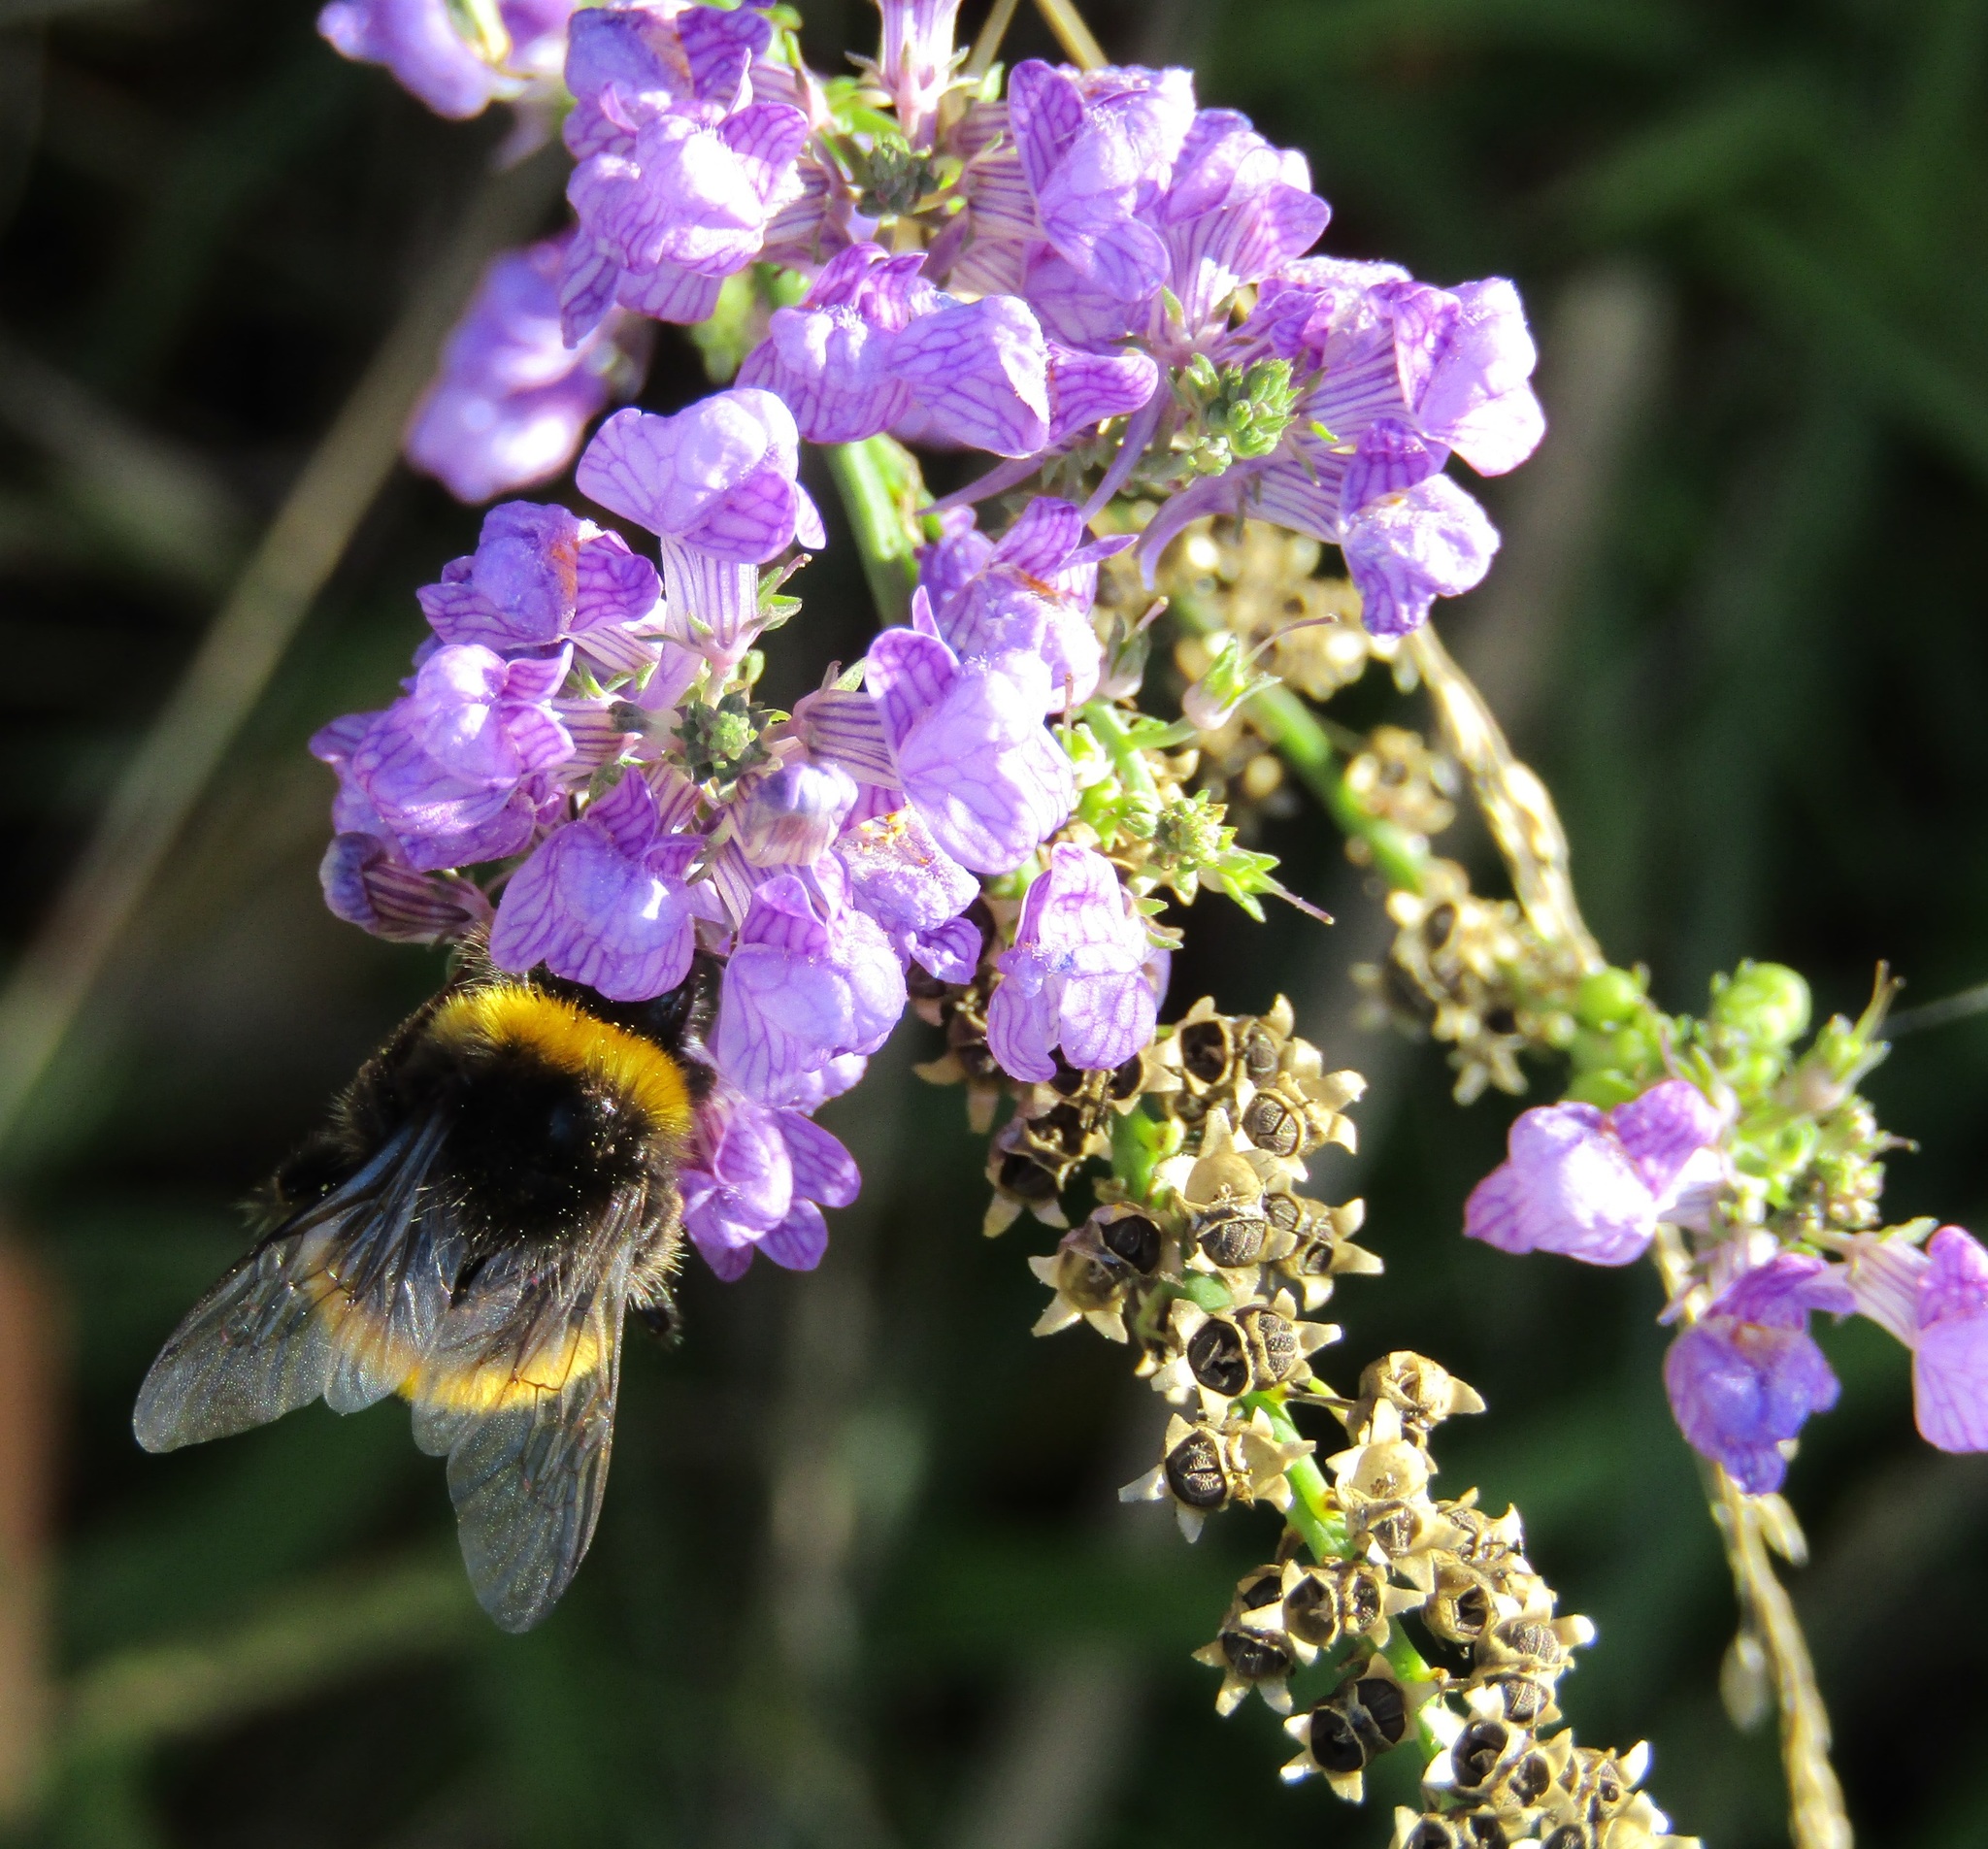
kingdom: Plantae
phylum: Tracheophyta
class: Magnoliopsida
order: Lamiales
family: Plantaginaceae
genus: Linaria
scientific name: Linaria purpurea
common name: Purple toadflax
